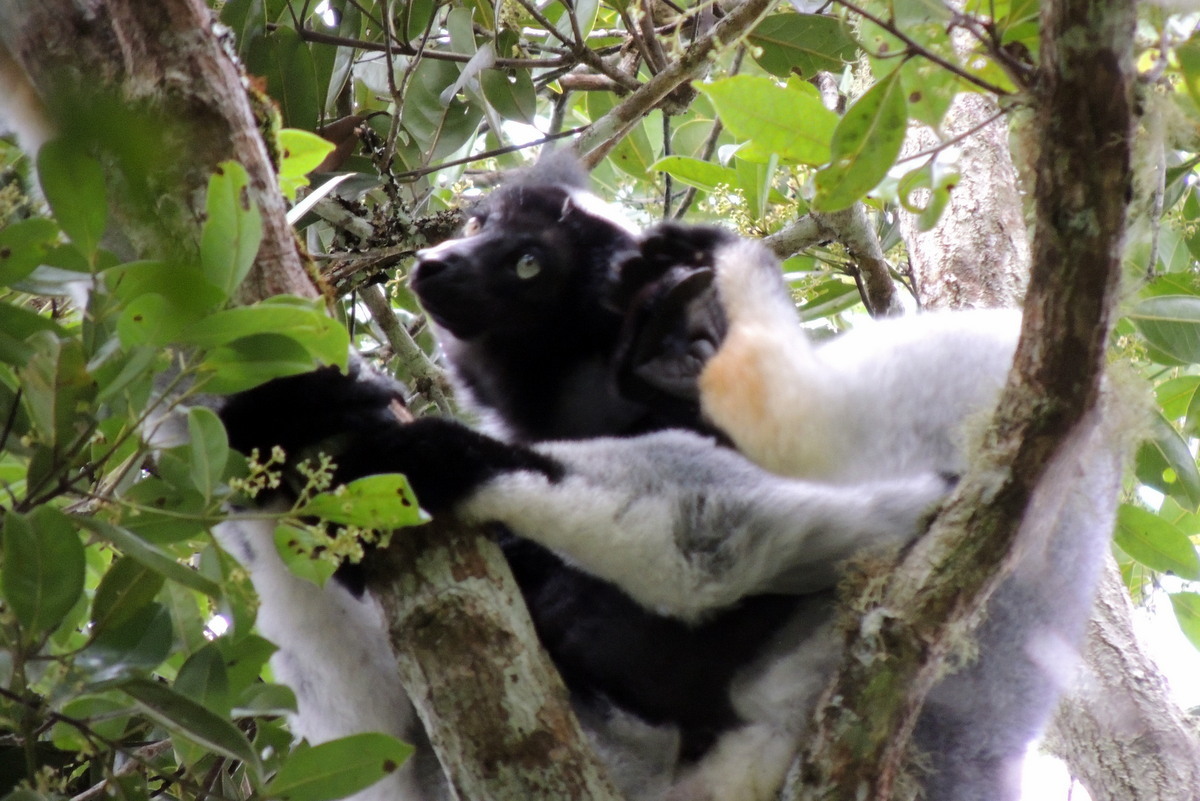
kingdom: Animalia
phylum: Chordata
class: Mammalia
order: Primates
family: Indriidae
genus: Indri
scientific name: Indri indri
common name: Indri
